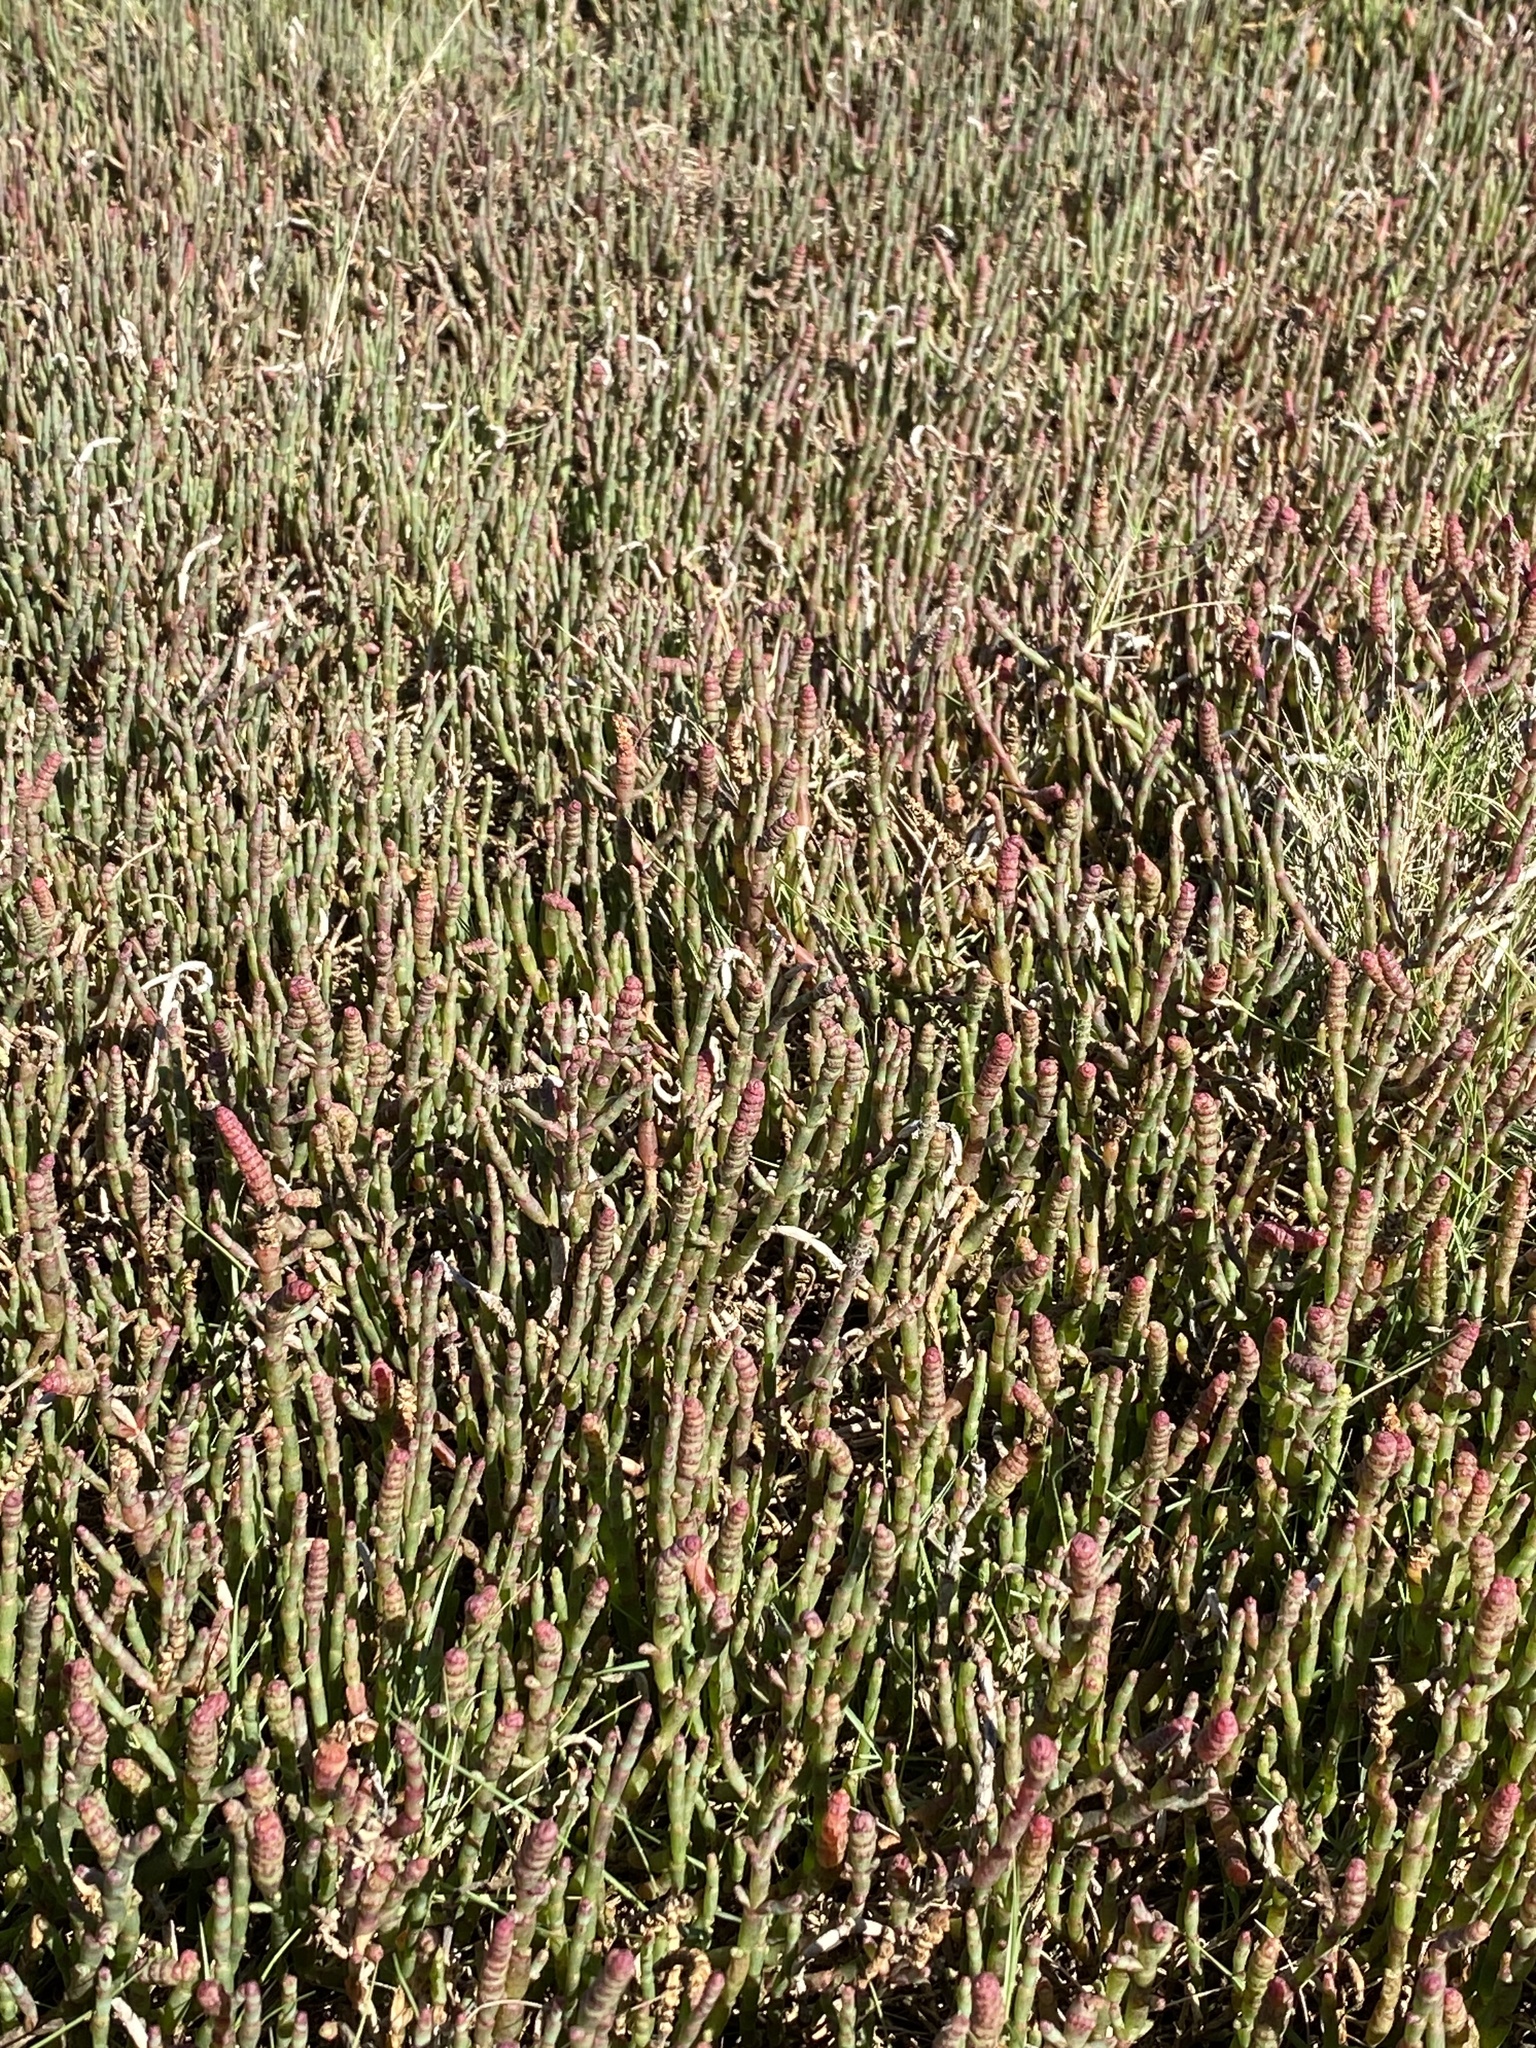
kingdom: Plantae
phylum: Tracheophyta
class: Magnoliopsida
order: Caryophyllales
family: Amaranthaceae
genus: Salicornia
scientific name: Salicornia quinqueflora
